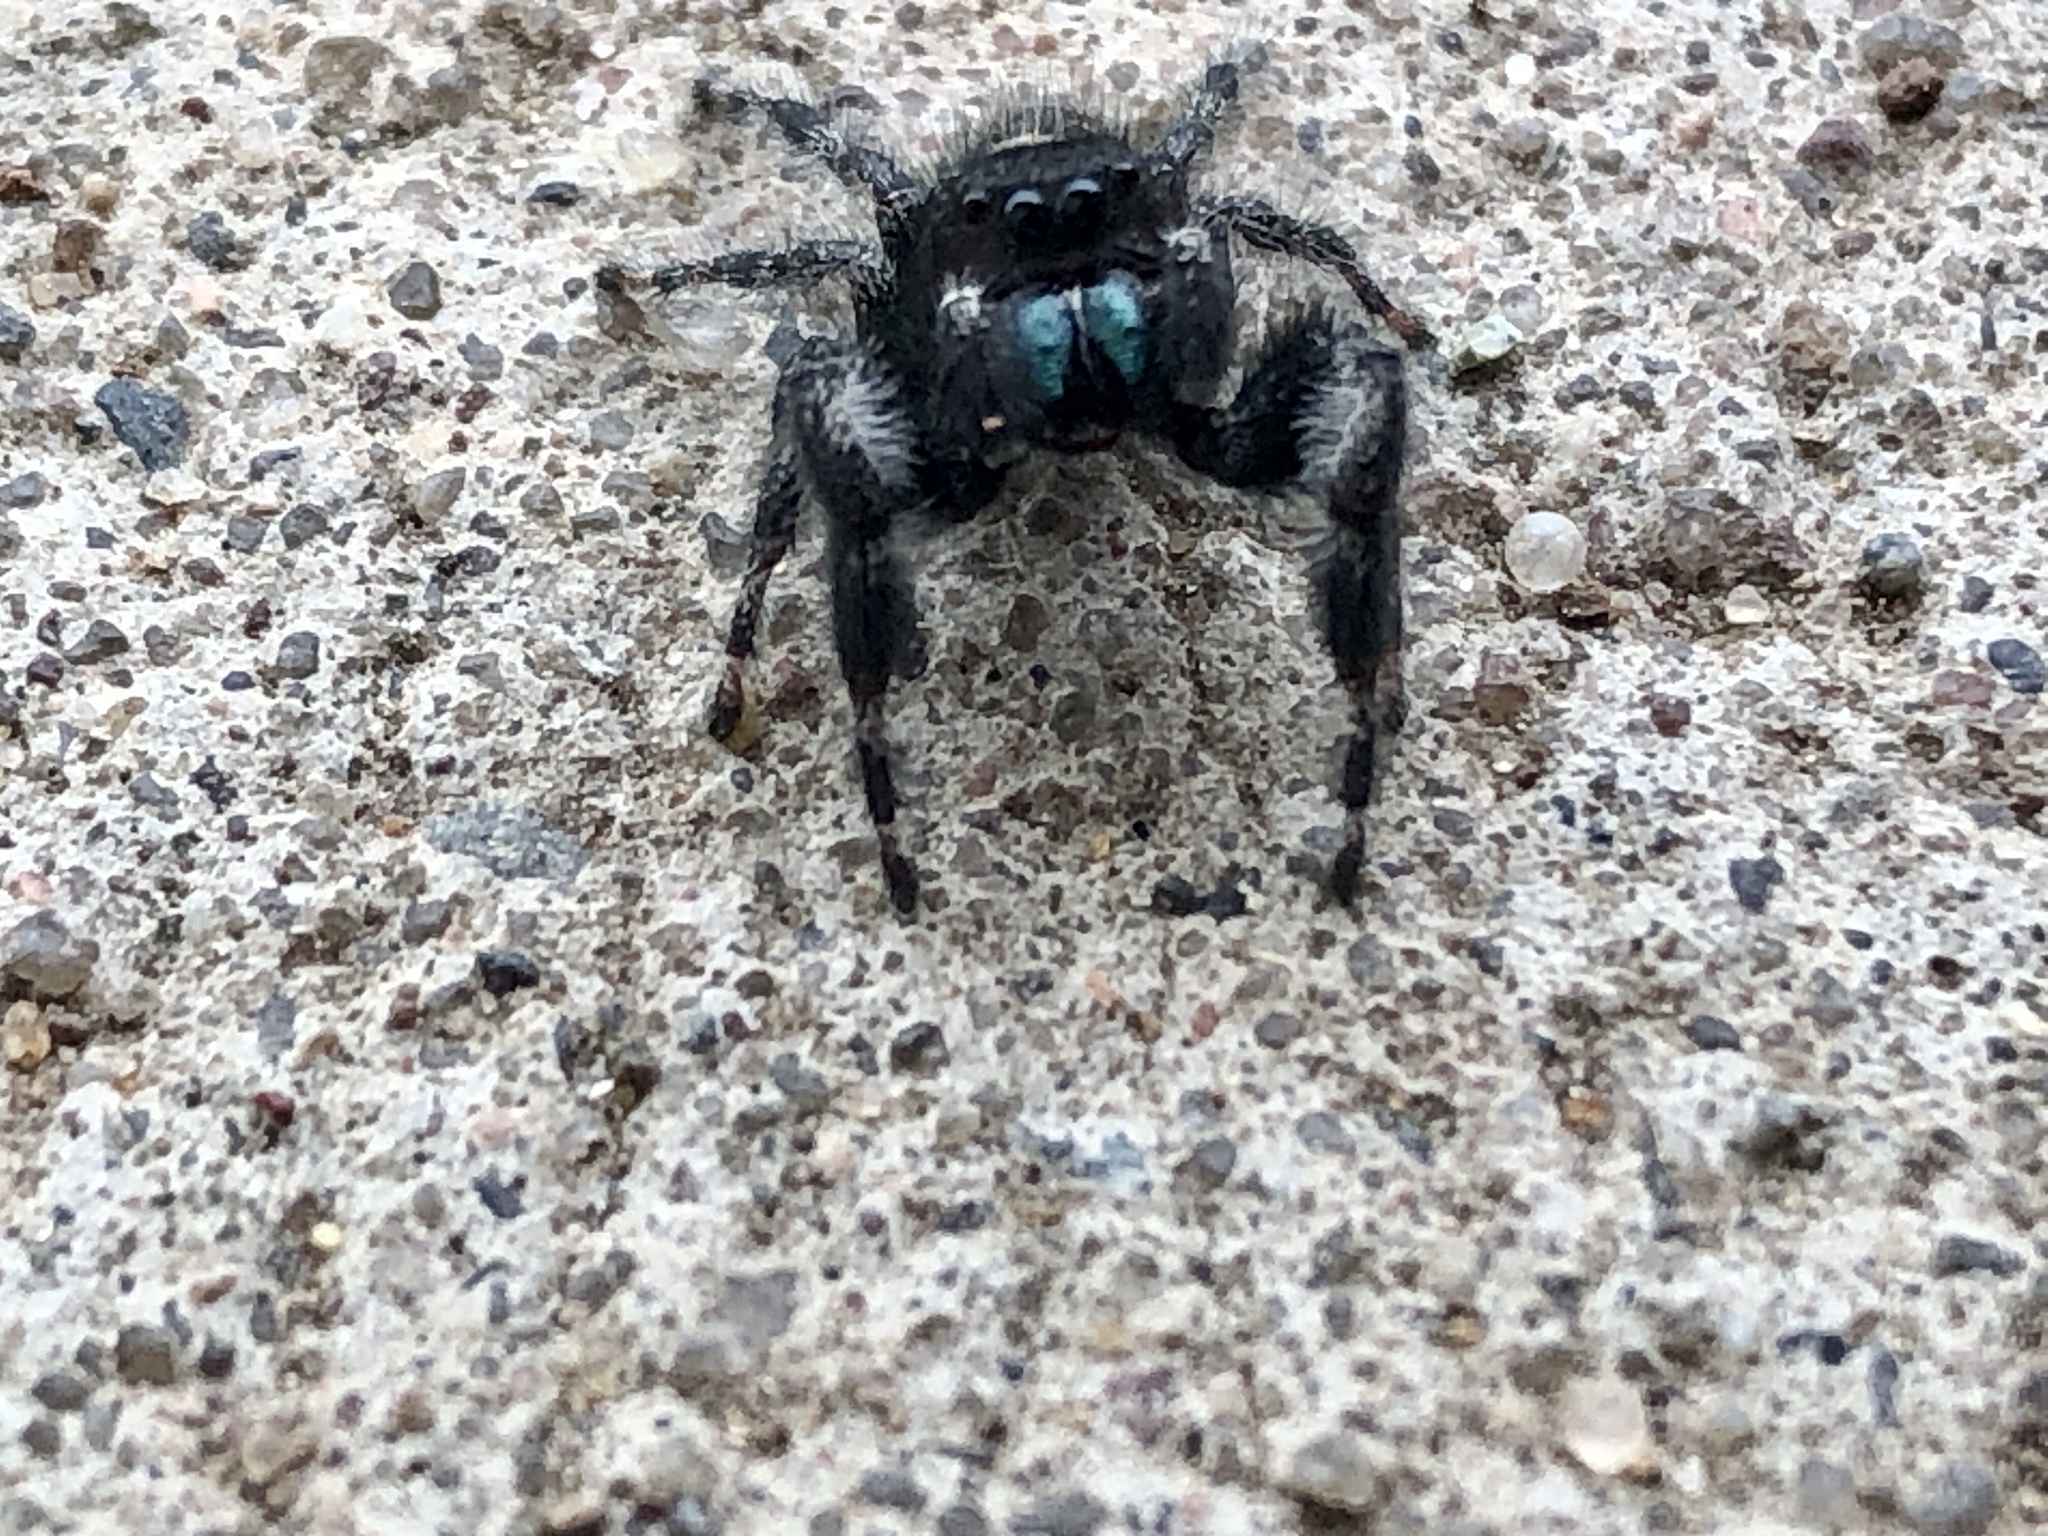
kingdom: Animalia
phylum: Arthropoda
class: Arachnida
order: Araneae
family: Salticidae
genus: Phidippus
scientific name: Phidippus audax
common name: Bold jumper
